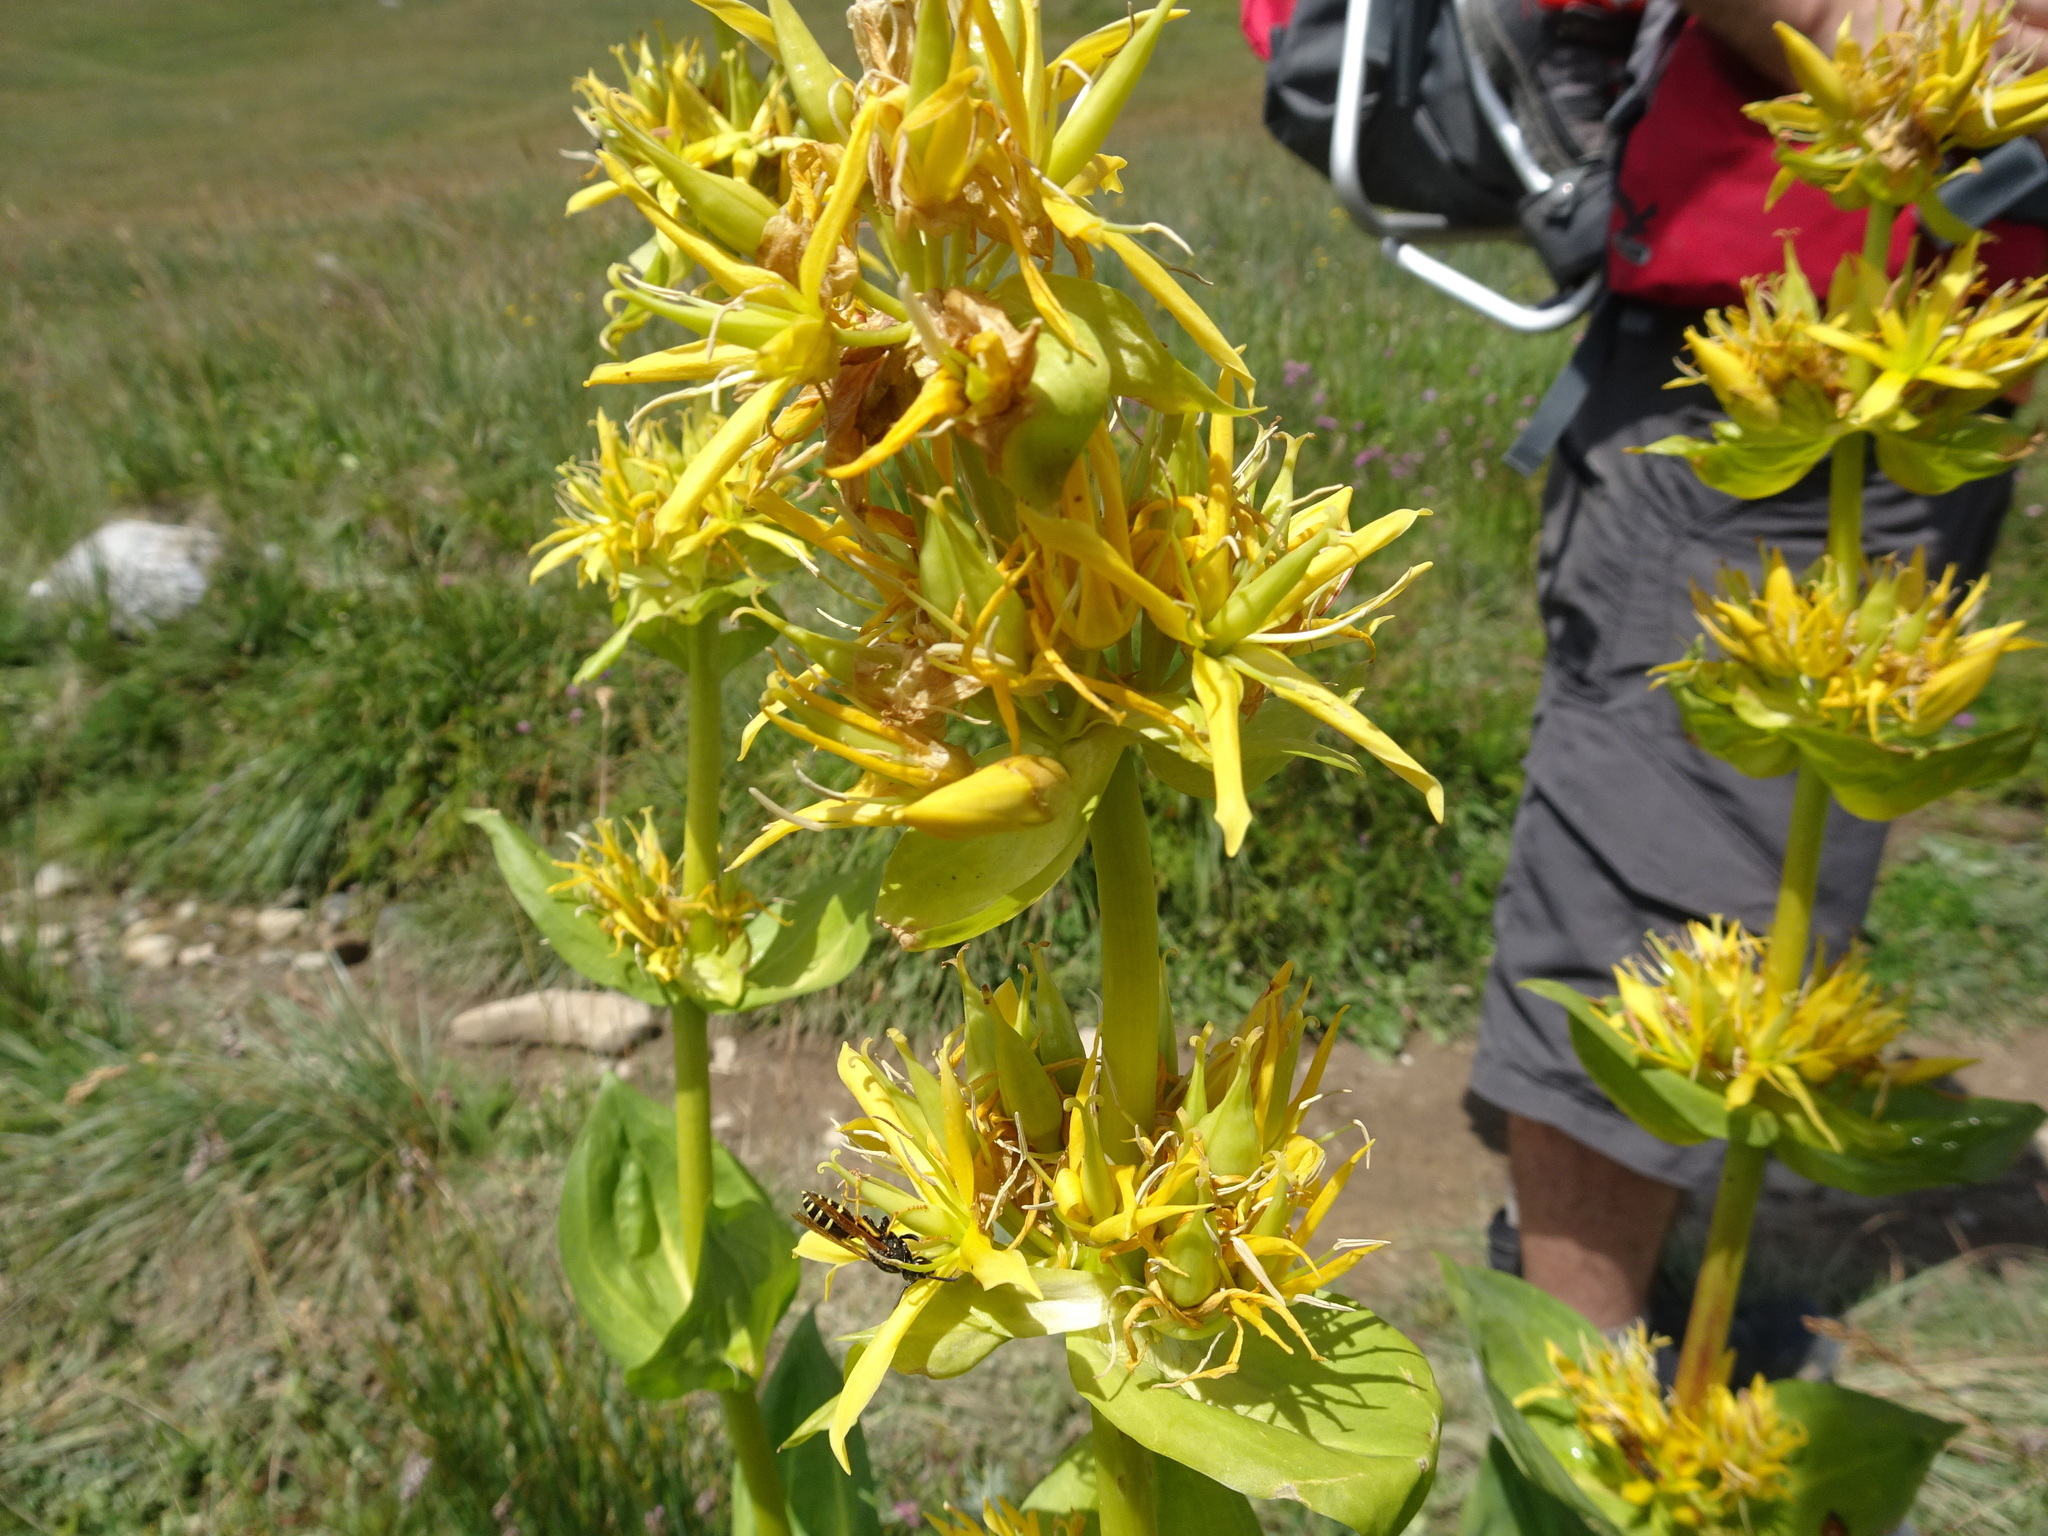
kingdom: Plantae
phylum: Tracheophyta
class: Magnoliopsida
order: Gentianales
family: Gentianaceae
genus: Gentiana
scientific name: Gentiana lutea
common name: Great yellow gentian
